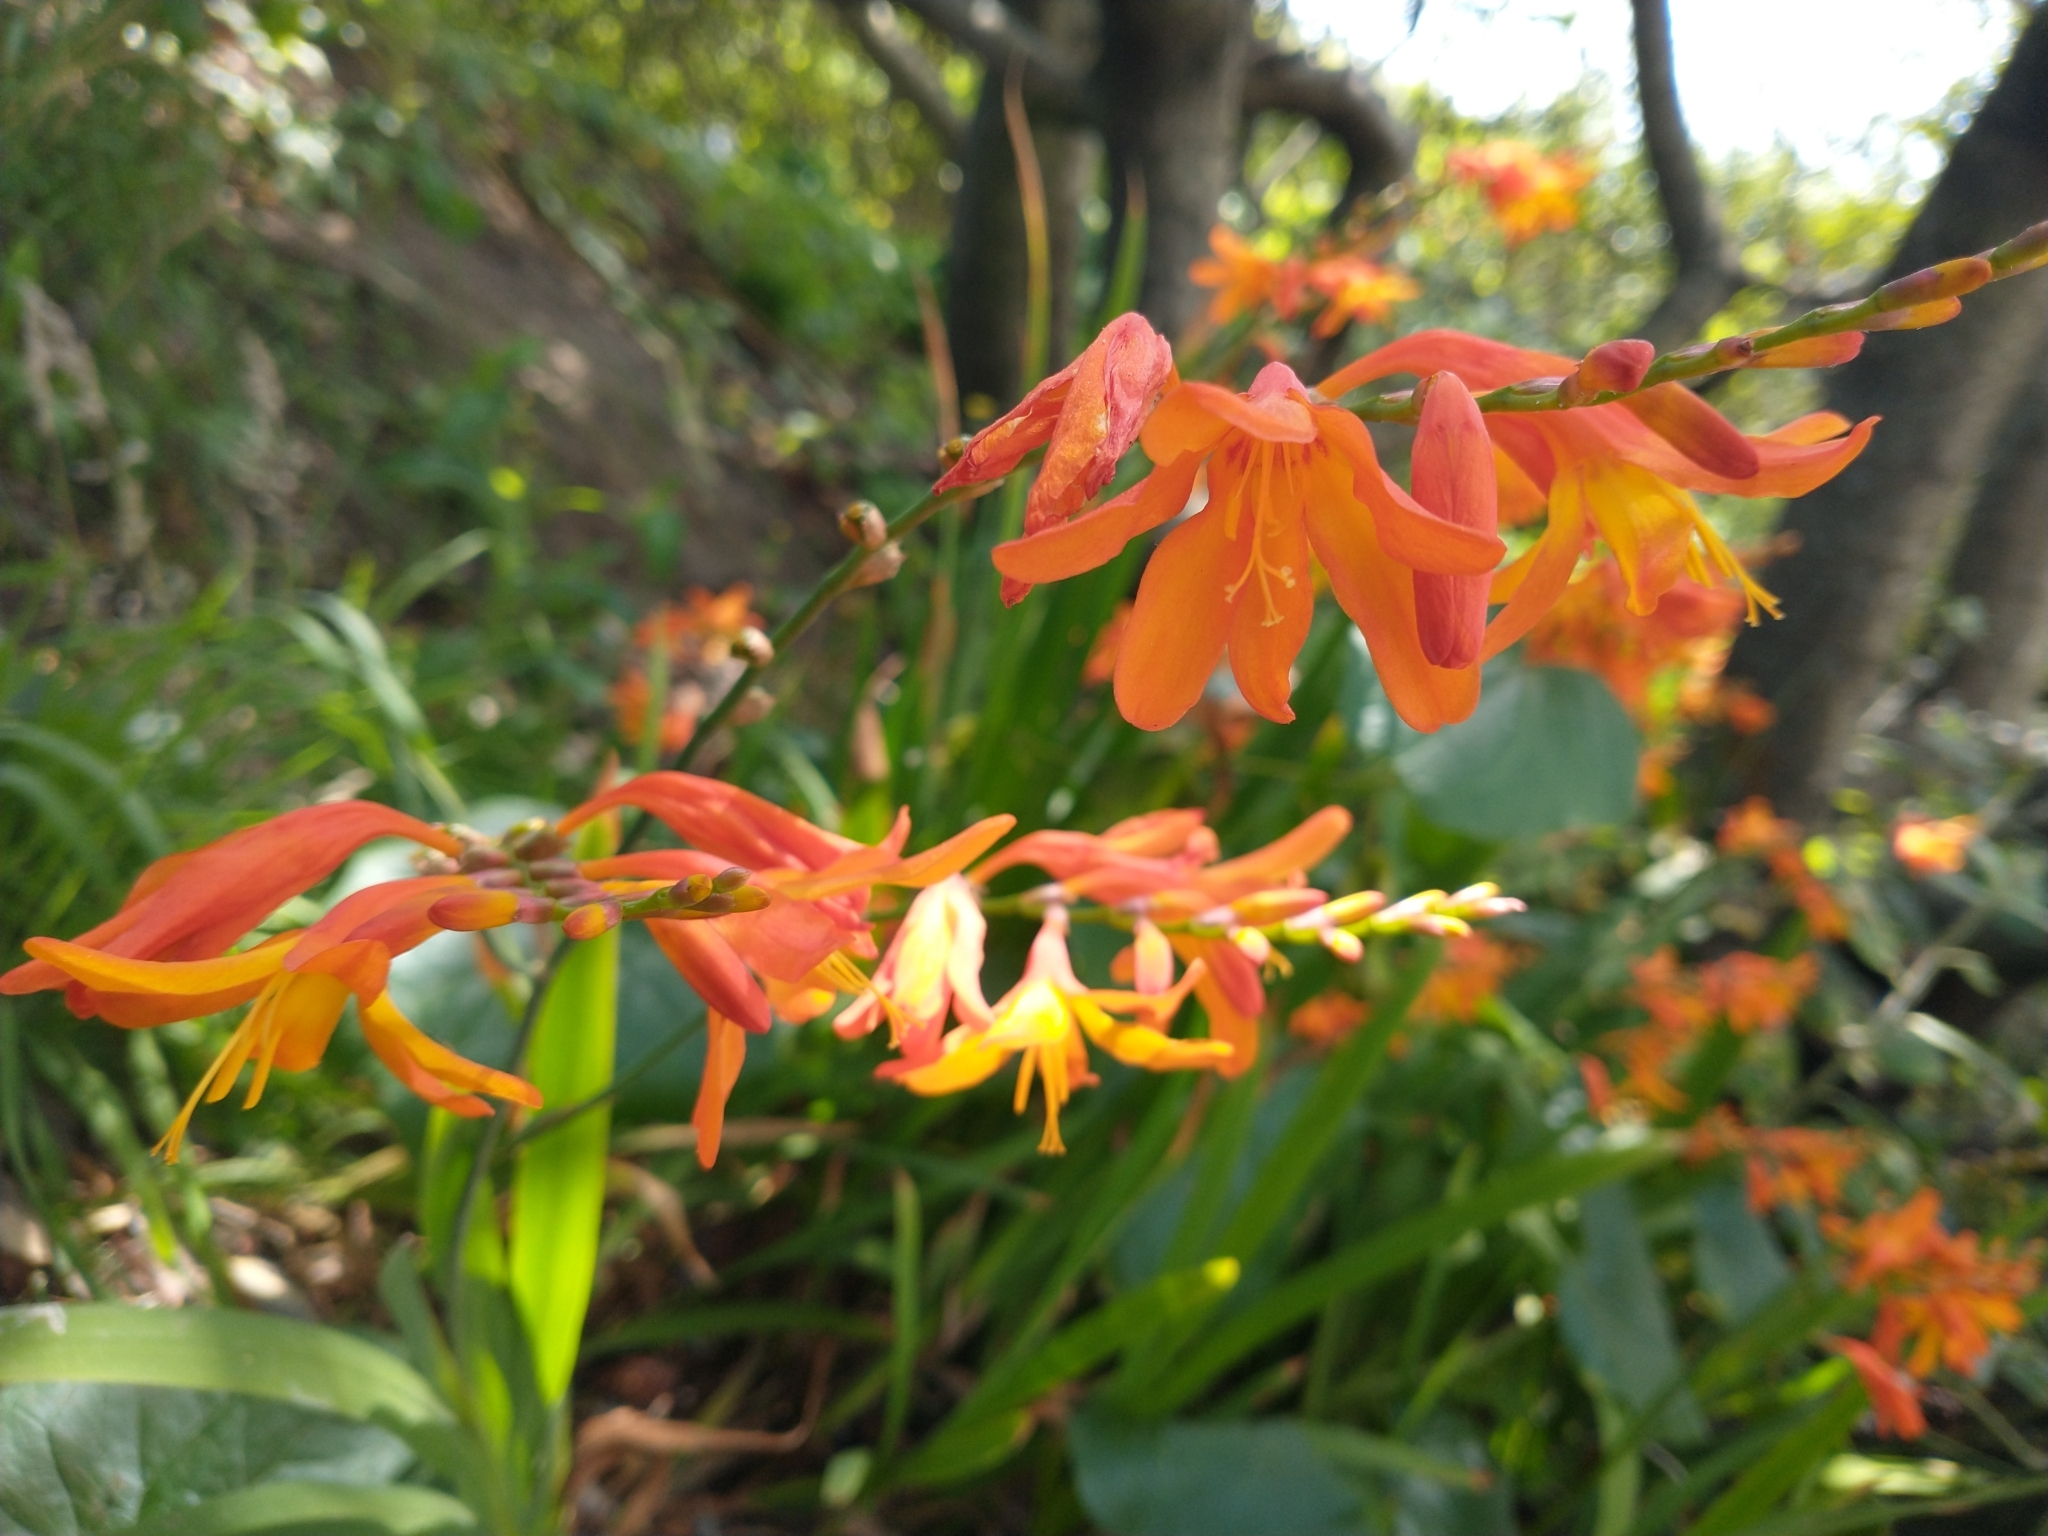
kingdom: Plantae
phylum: Tracheophyta
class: Liliopsida
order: Asparagales
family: Iridaceae
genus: Crocosmia
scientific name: Crocosmia crocosmiiflora
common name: Montbretia
